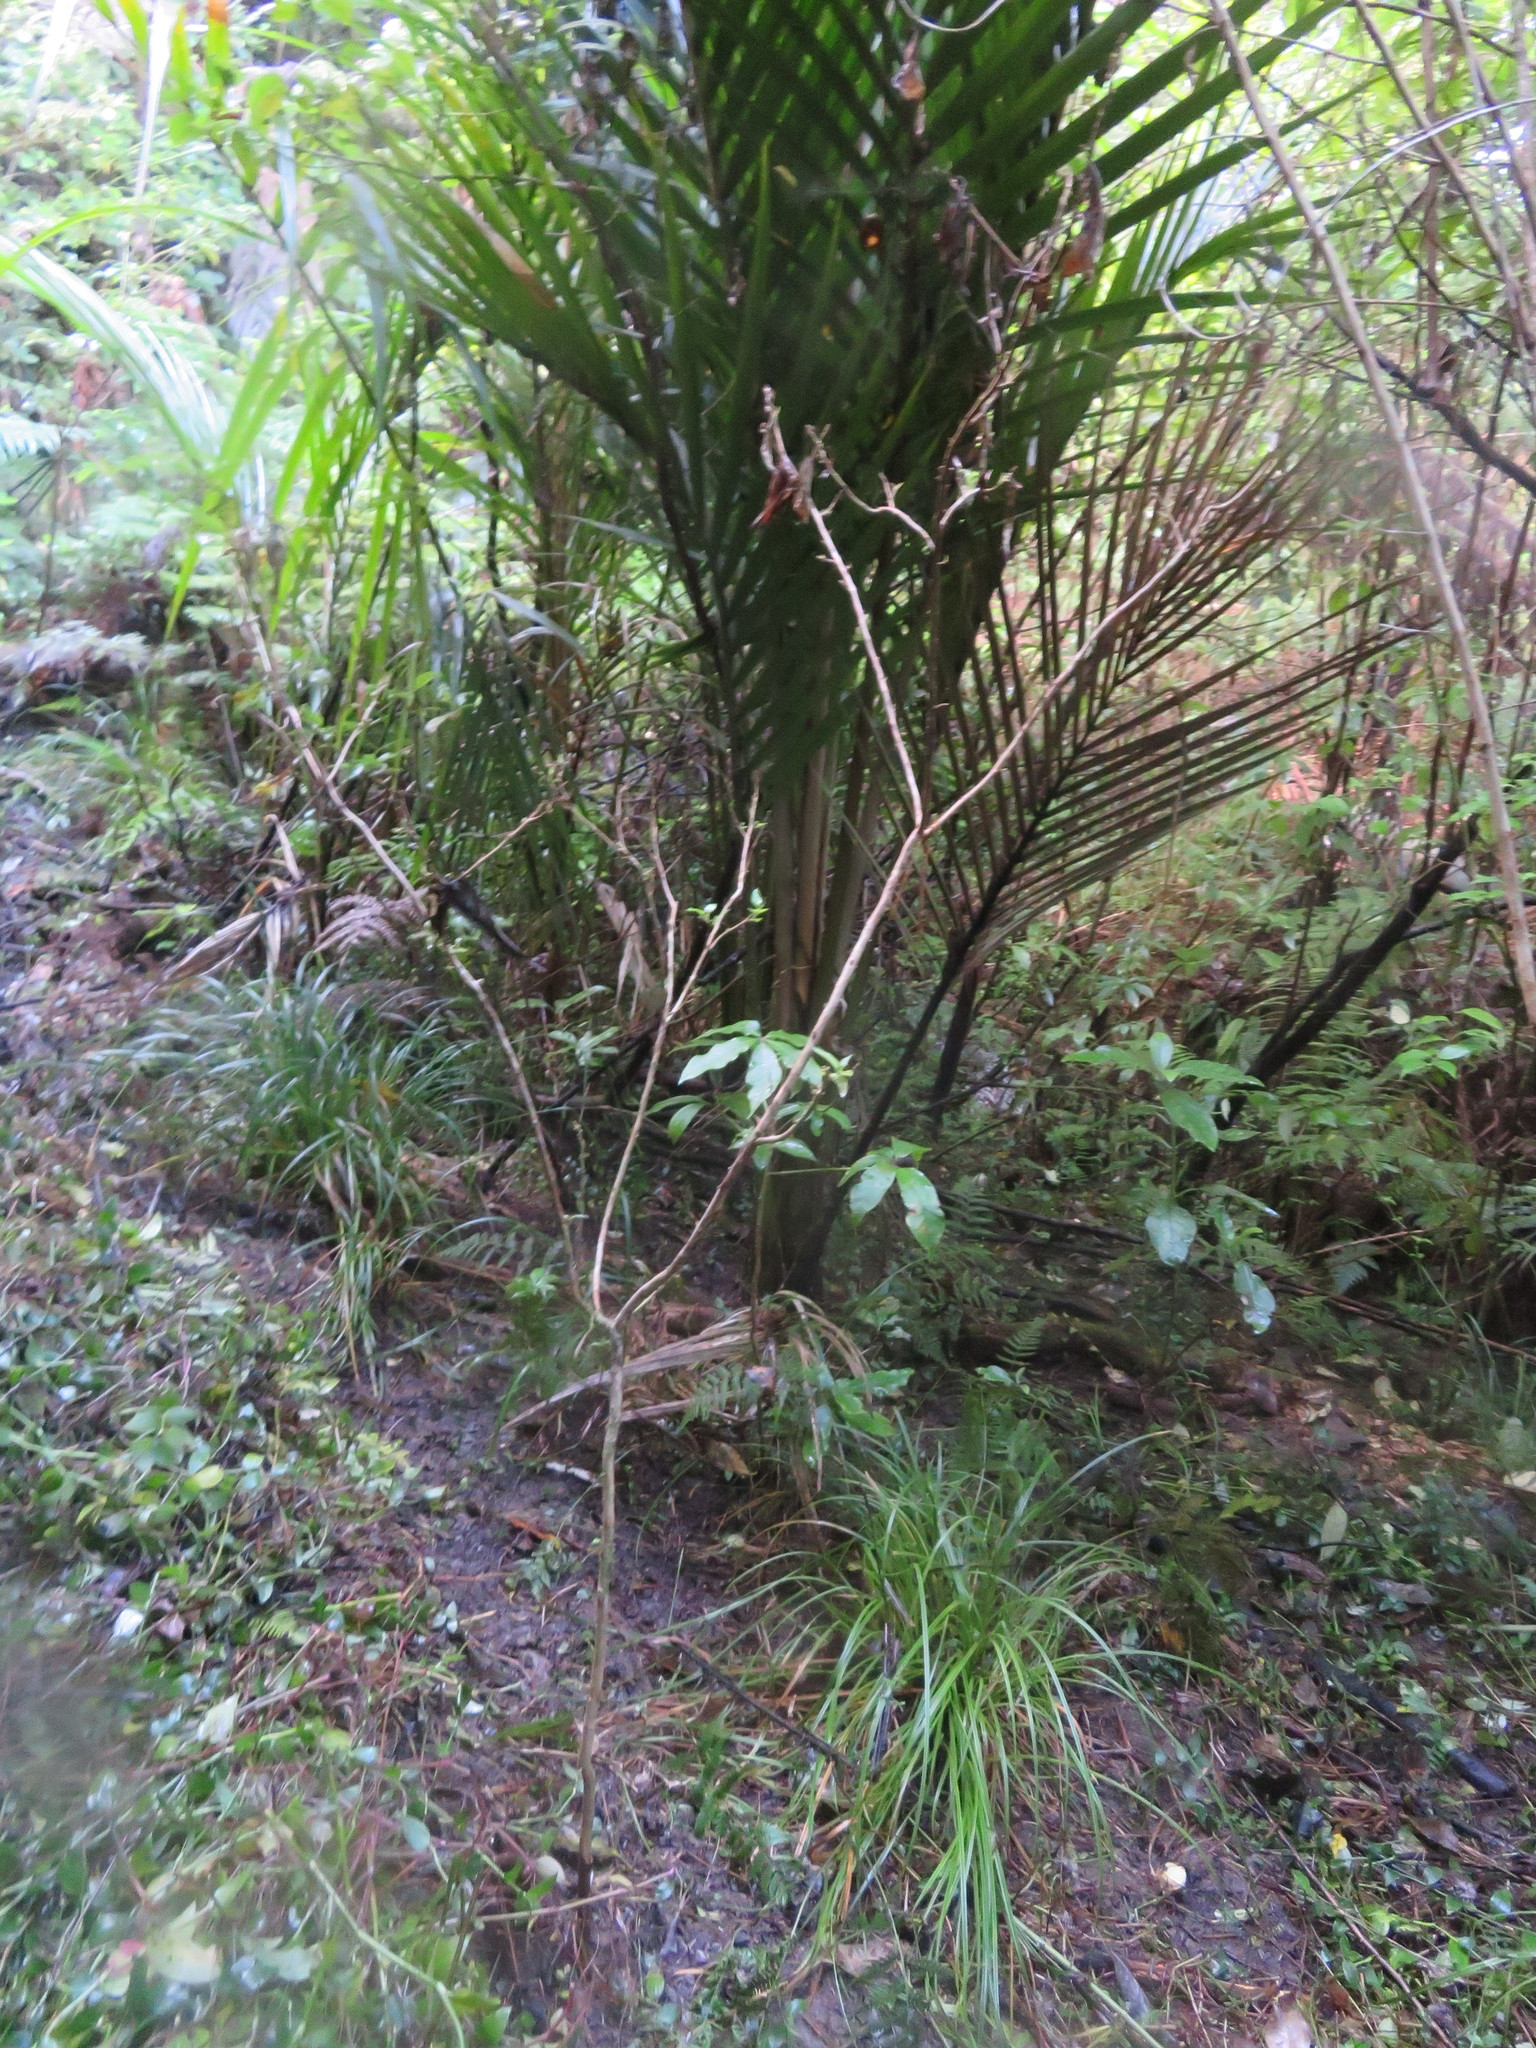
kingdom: Plantae
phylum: Tracheophyta
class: Magnoliopsida
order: Myrtales
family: Onagraceae
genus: Fuchsia
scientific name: Fuchsia excorticata
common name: Tree fuchsia
